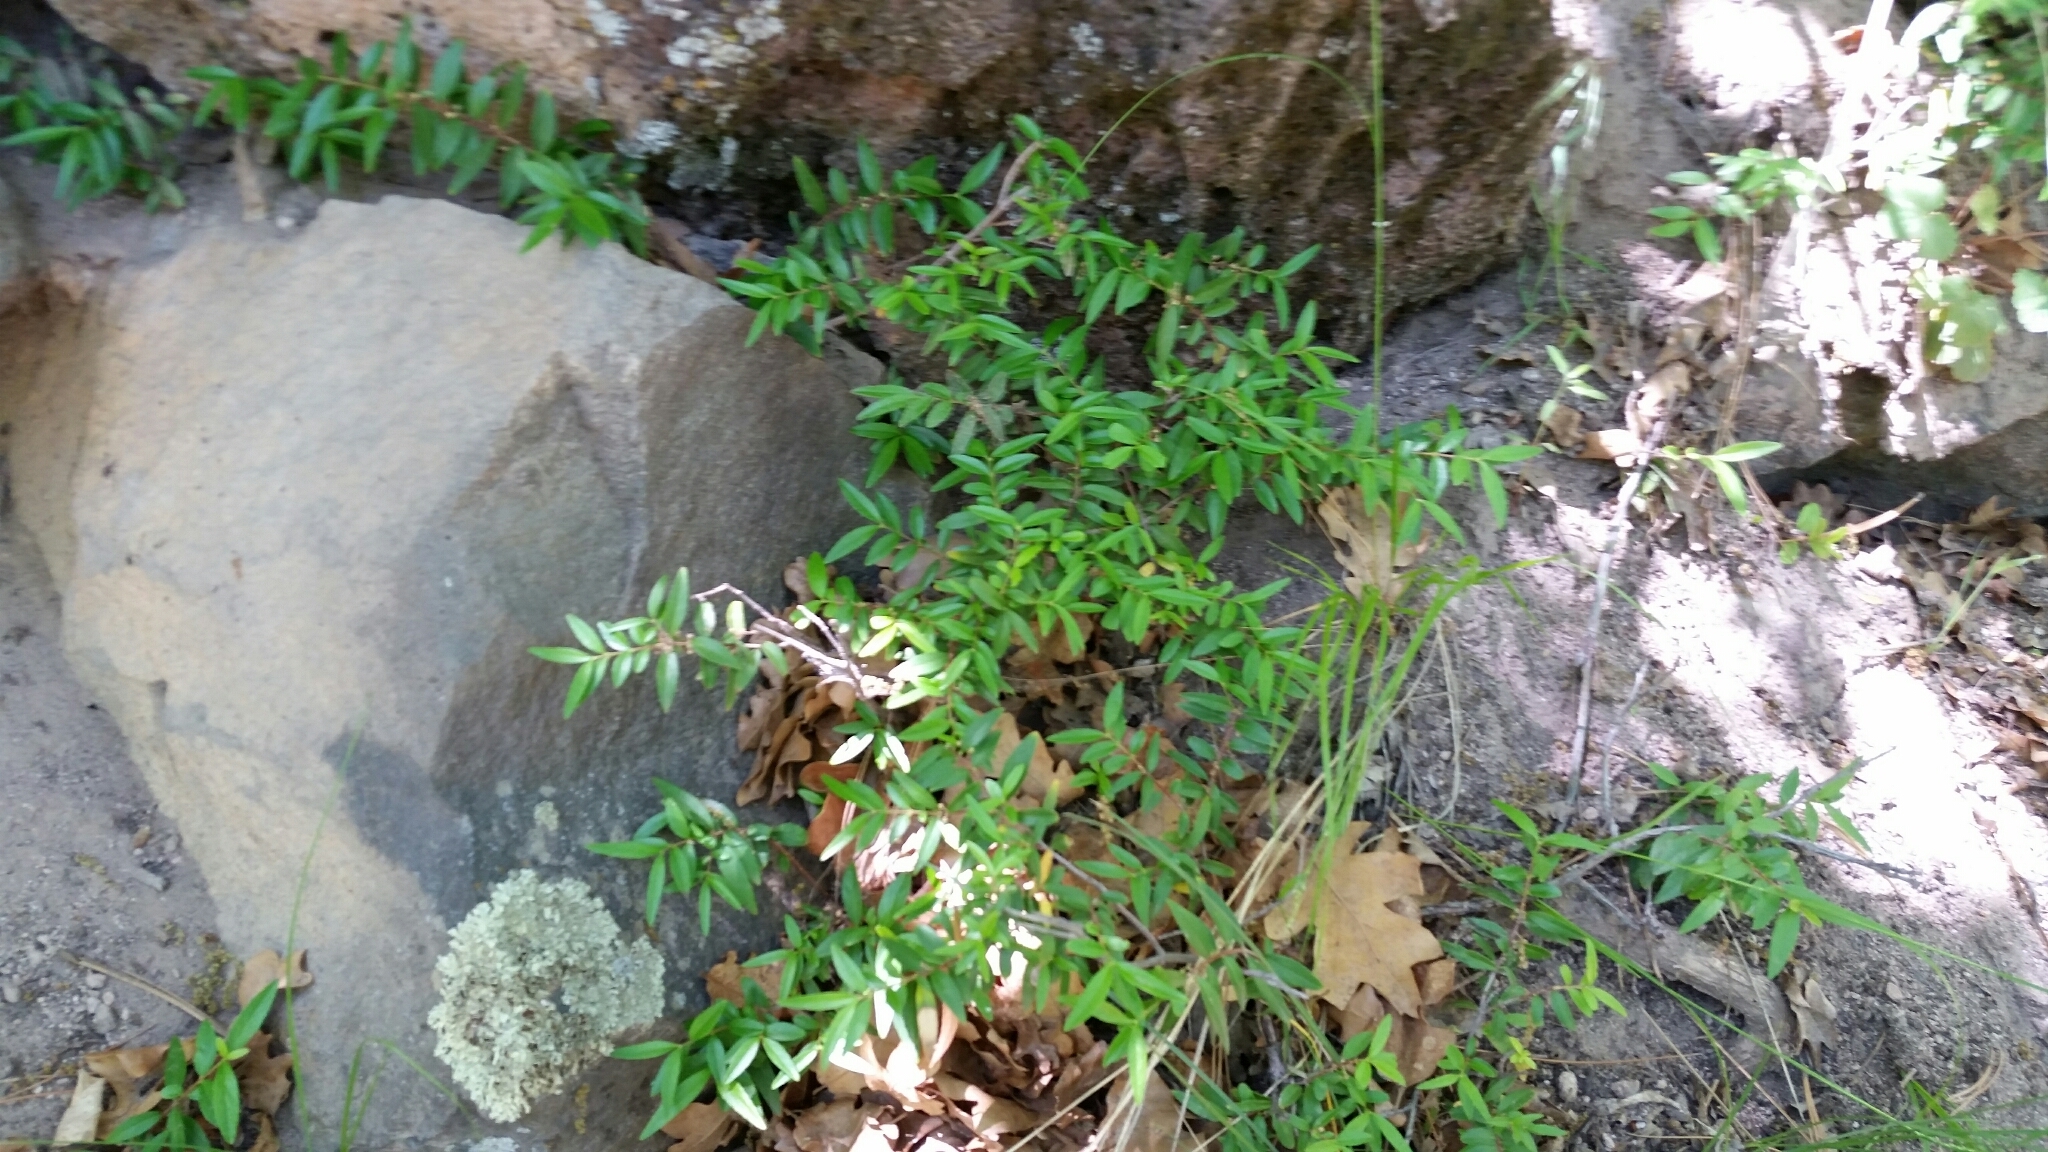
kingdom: Plantae
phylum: Tracheophyta
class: Magnoliopsida
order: Celastrales
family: Celastraceae
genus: Paxistima
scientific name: Paxistima myrsinites
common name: Mountain-lover
